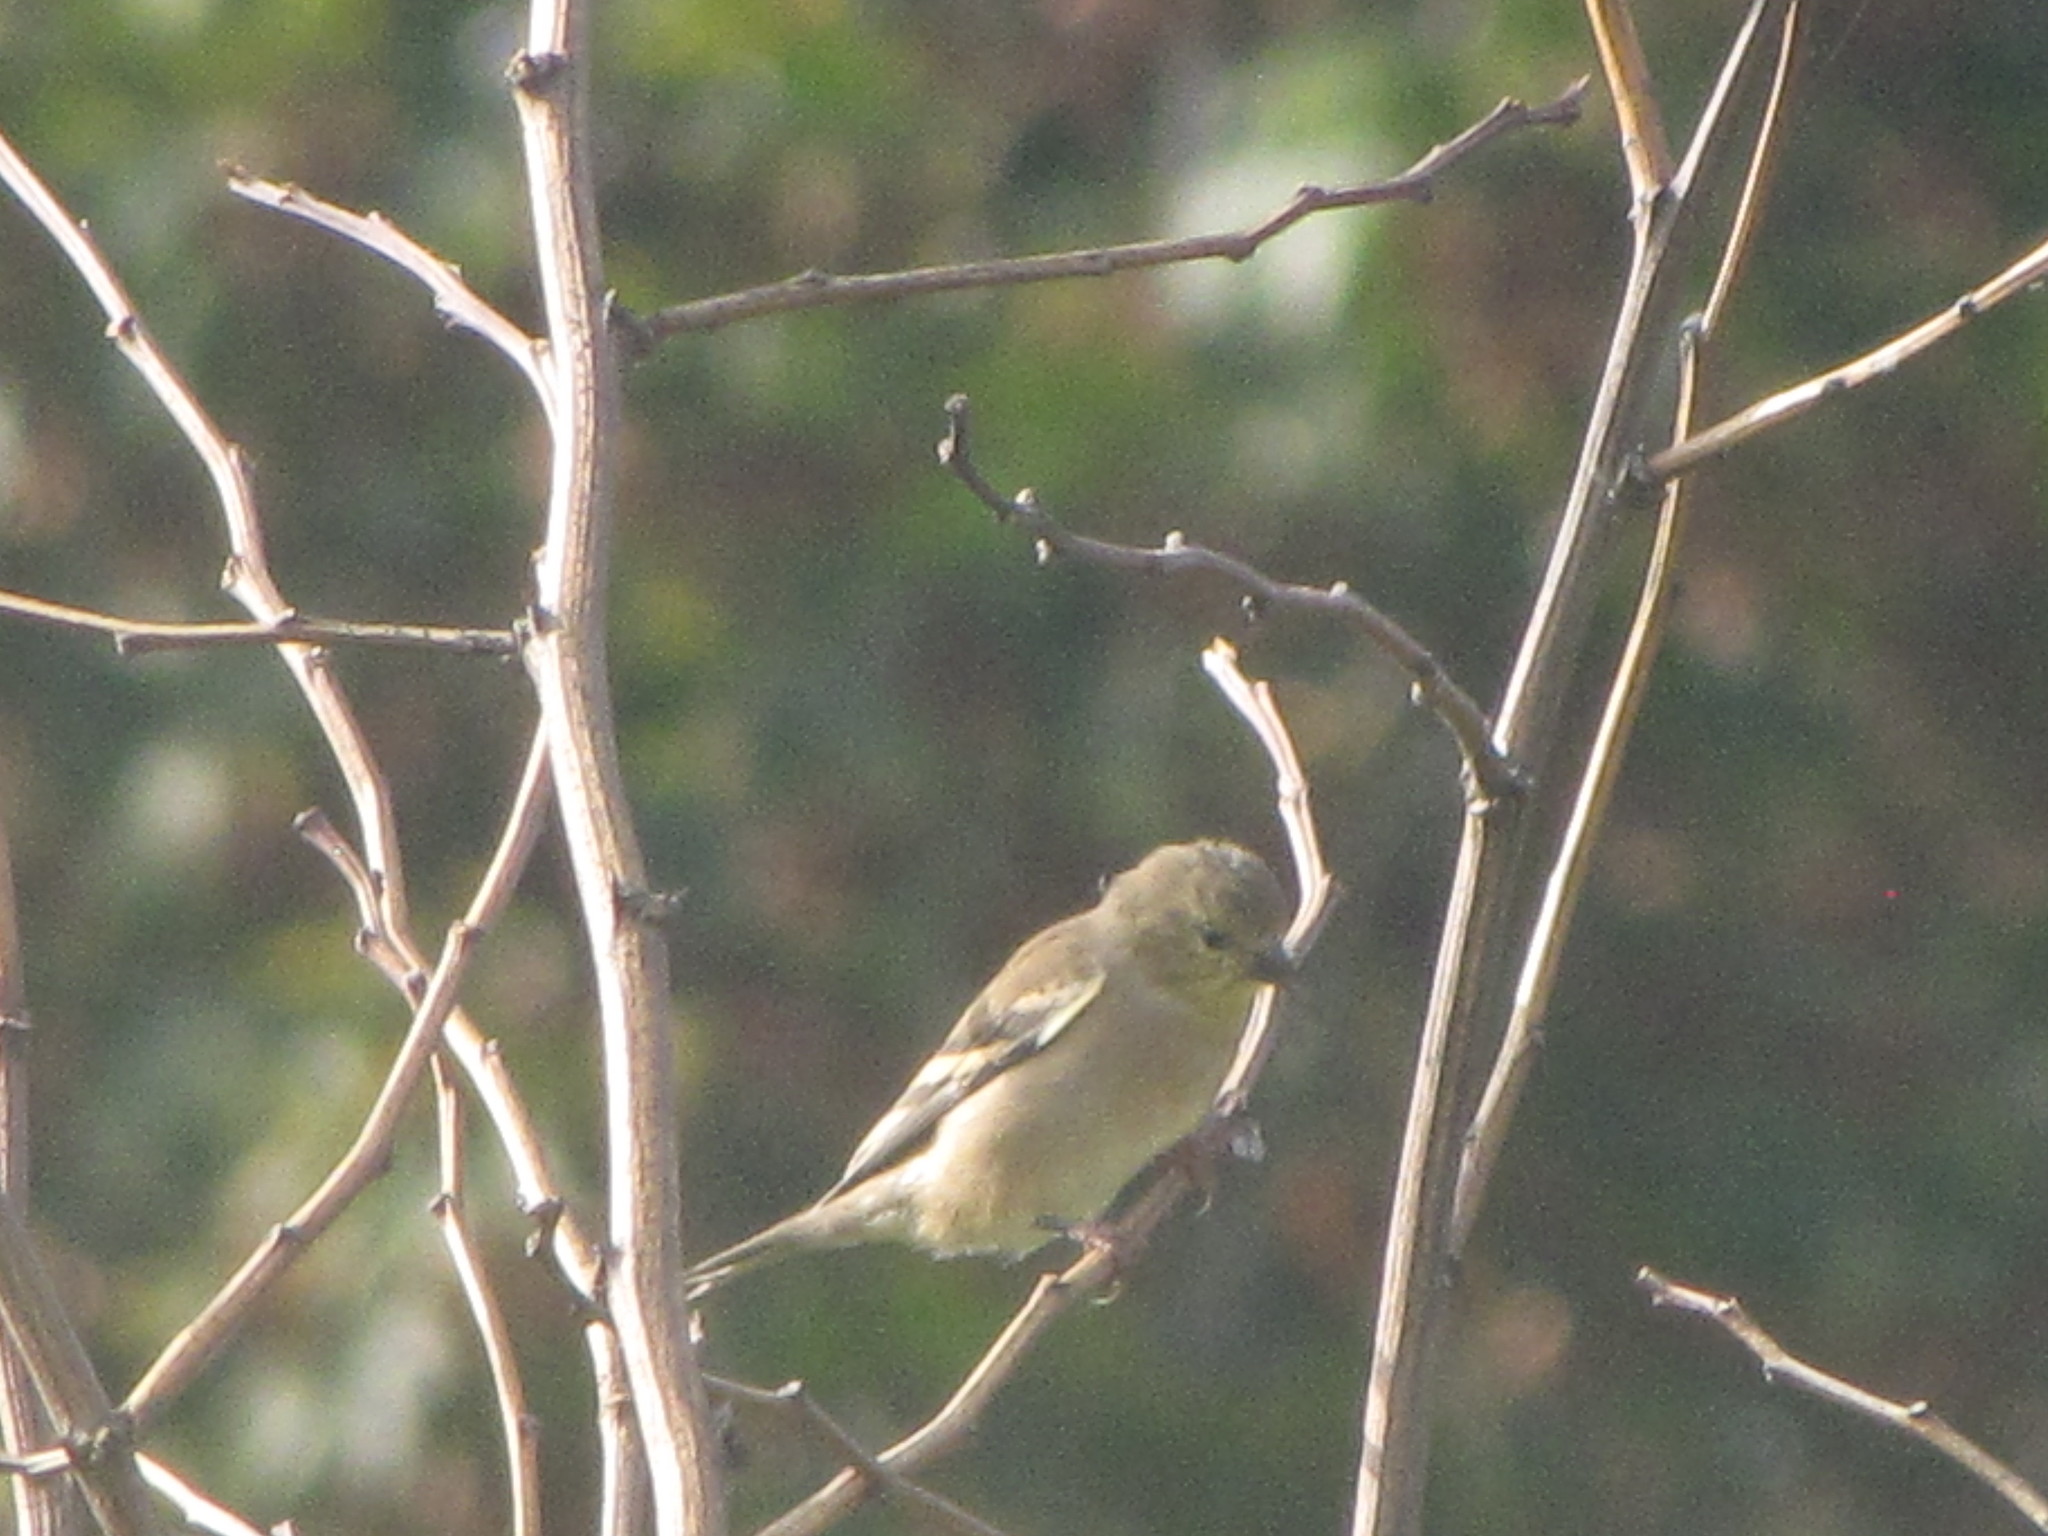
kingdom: Animalia
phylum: Chordata
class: Aves
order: Passeriformes
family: Fringillidae
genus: Spinus
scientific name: Spinus tristis
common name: American goldfinch
